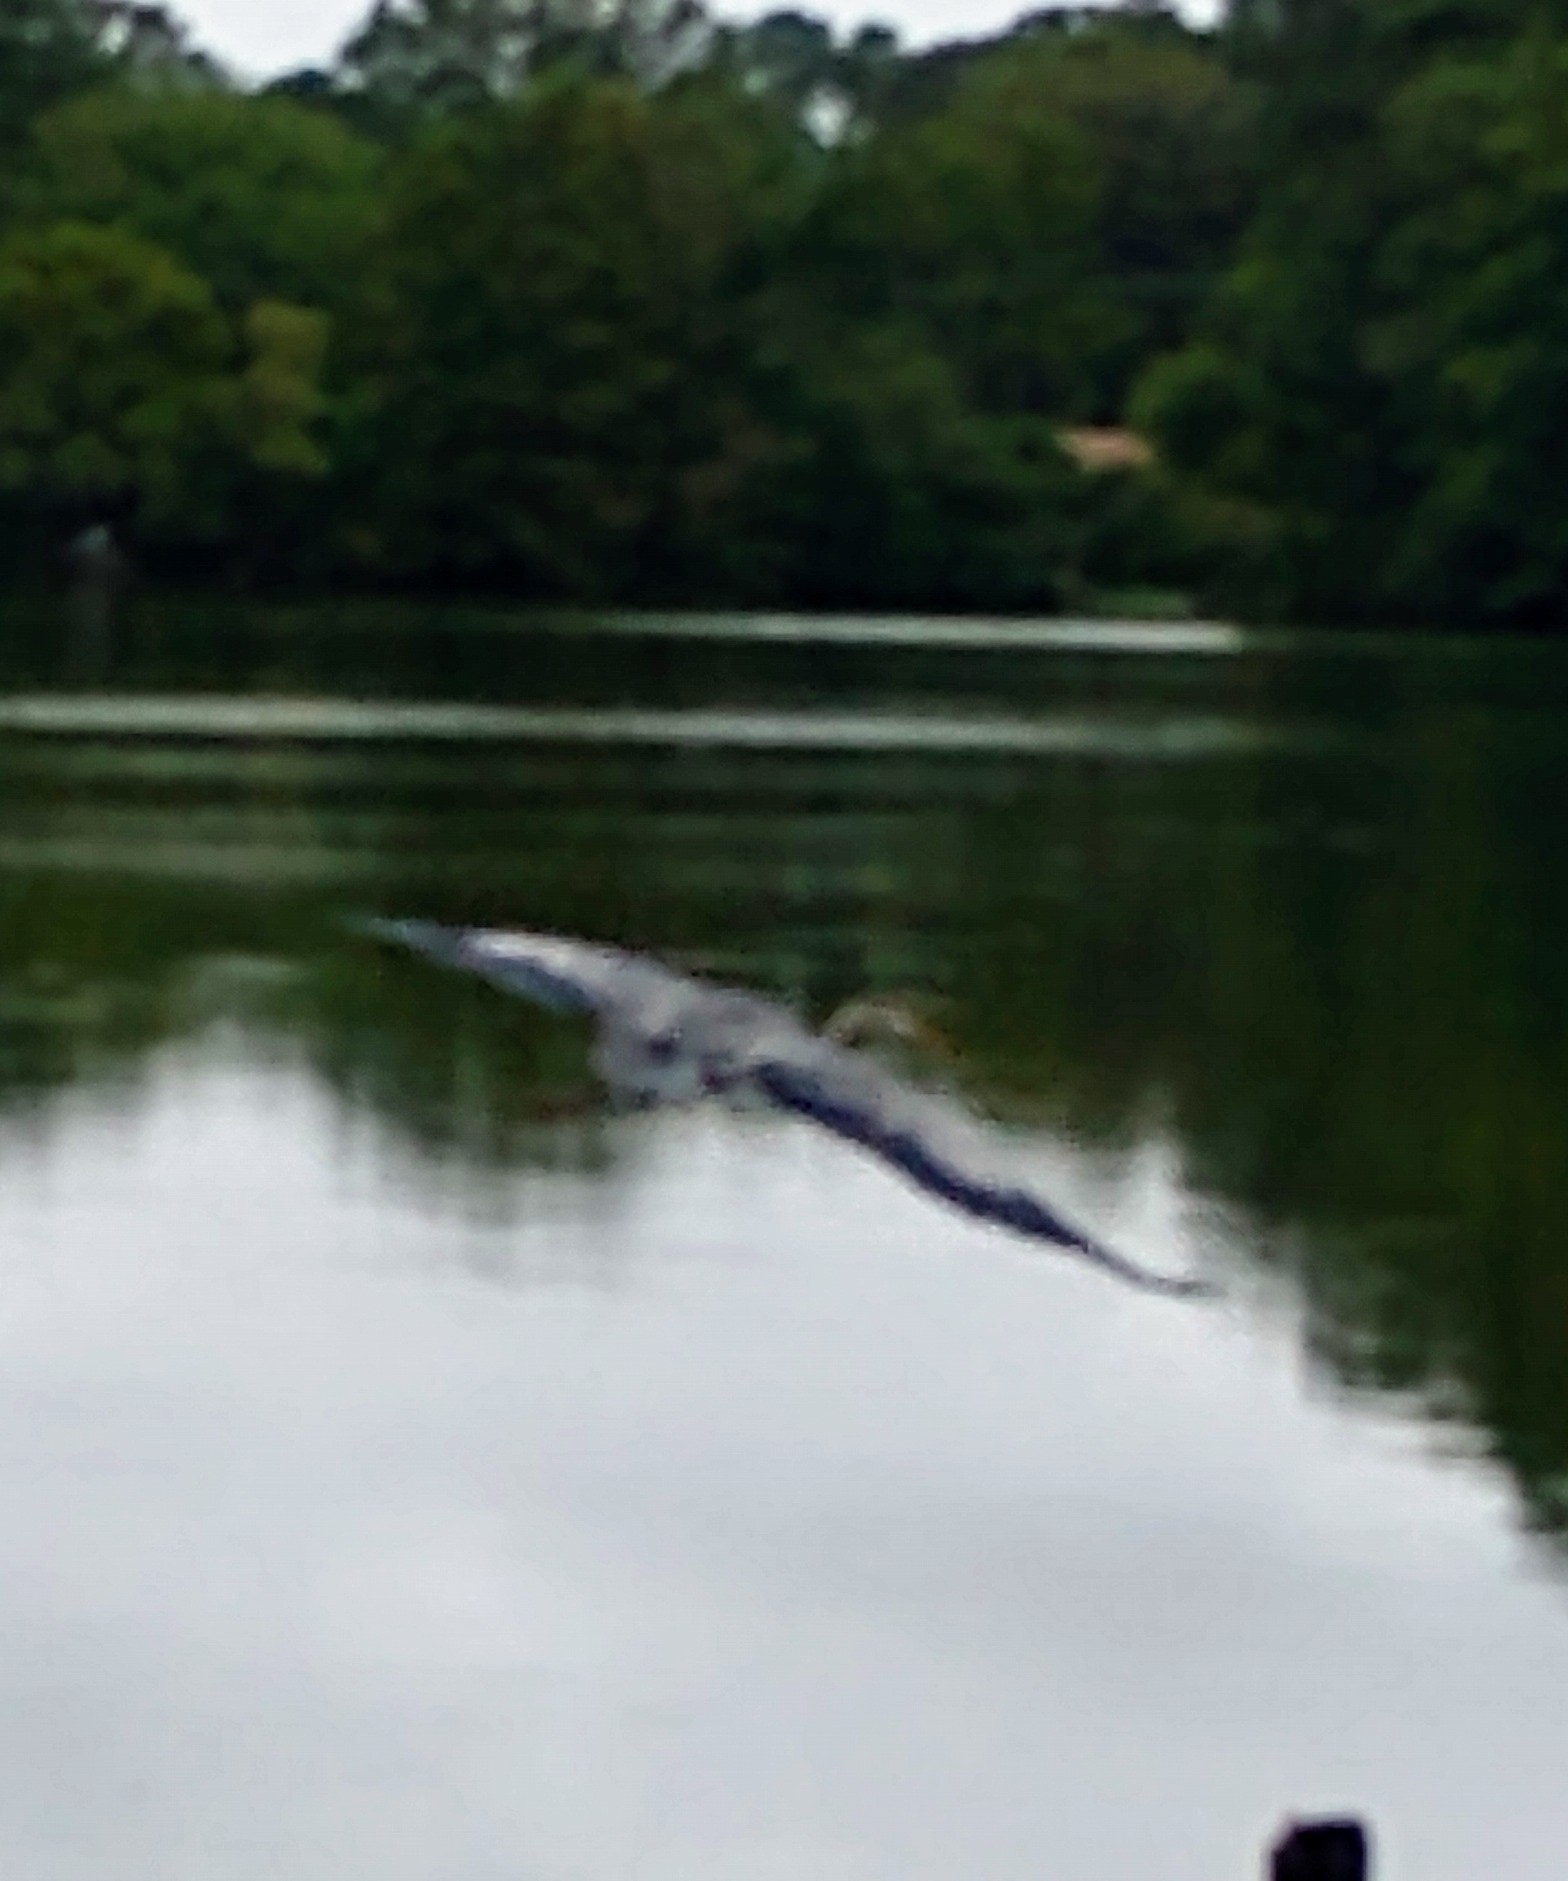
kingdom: Animalia
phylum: Chordata
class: Aves
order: Pelecaniformes
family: Ardeidae
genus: Ardea
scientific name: Ardea herodias
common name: Great blue heron
